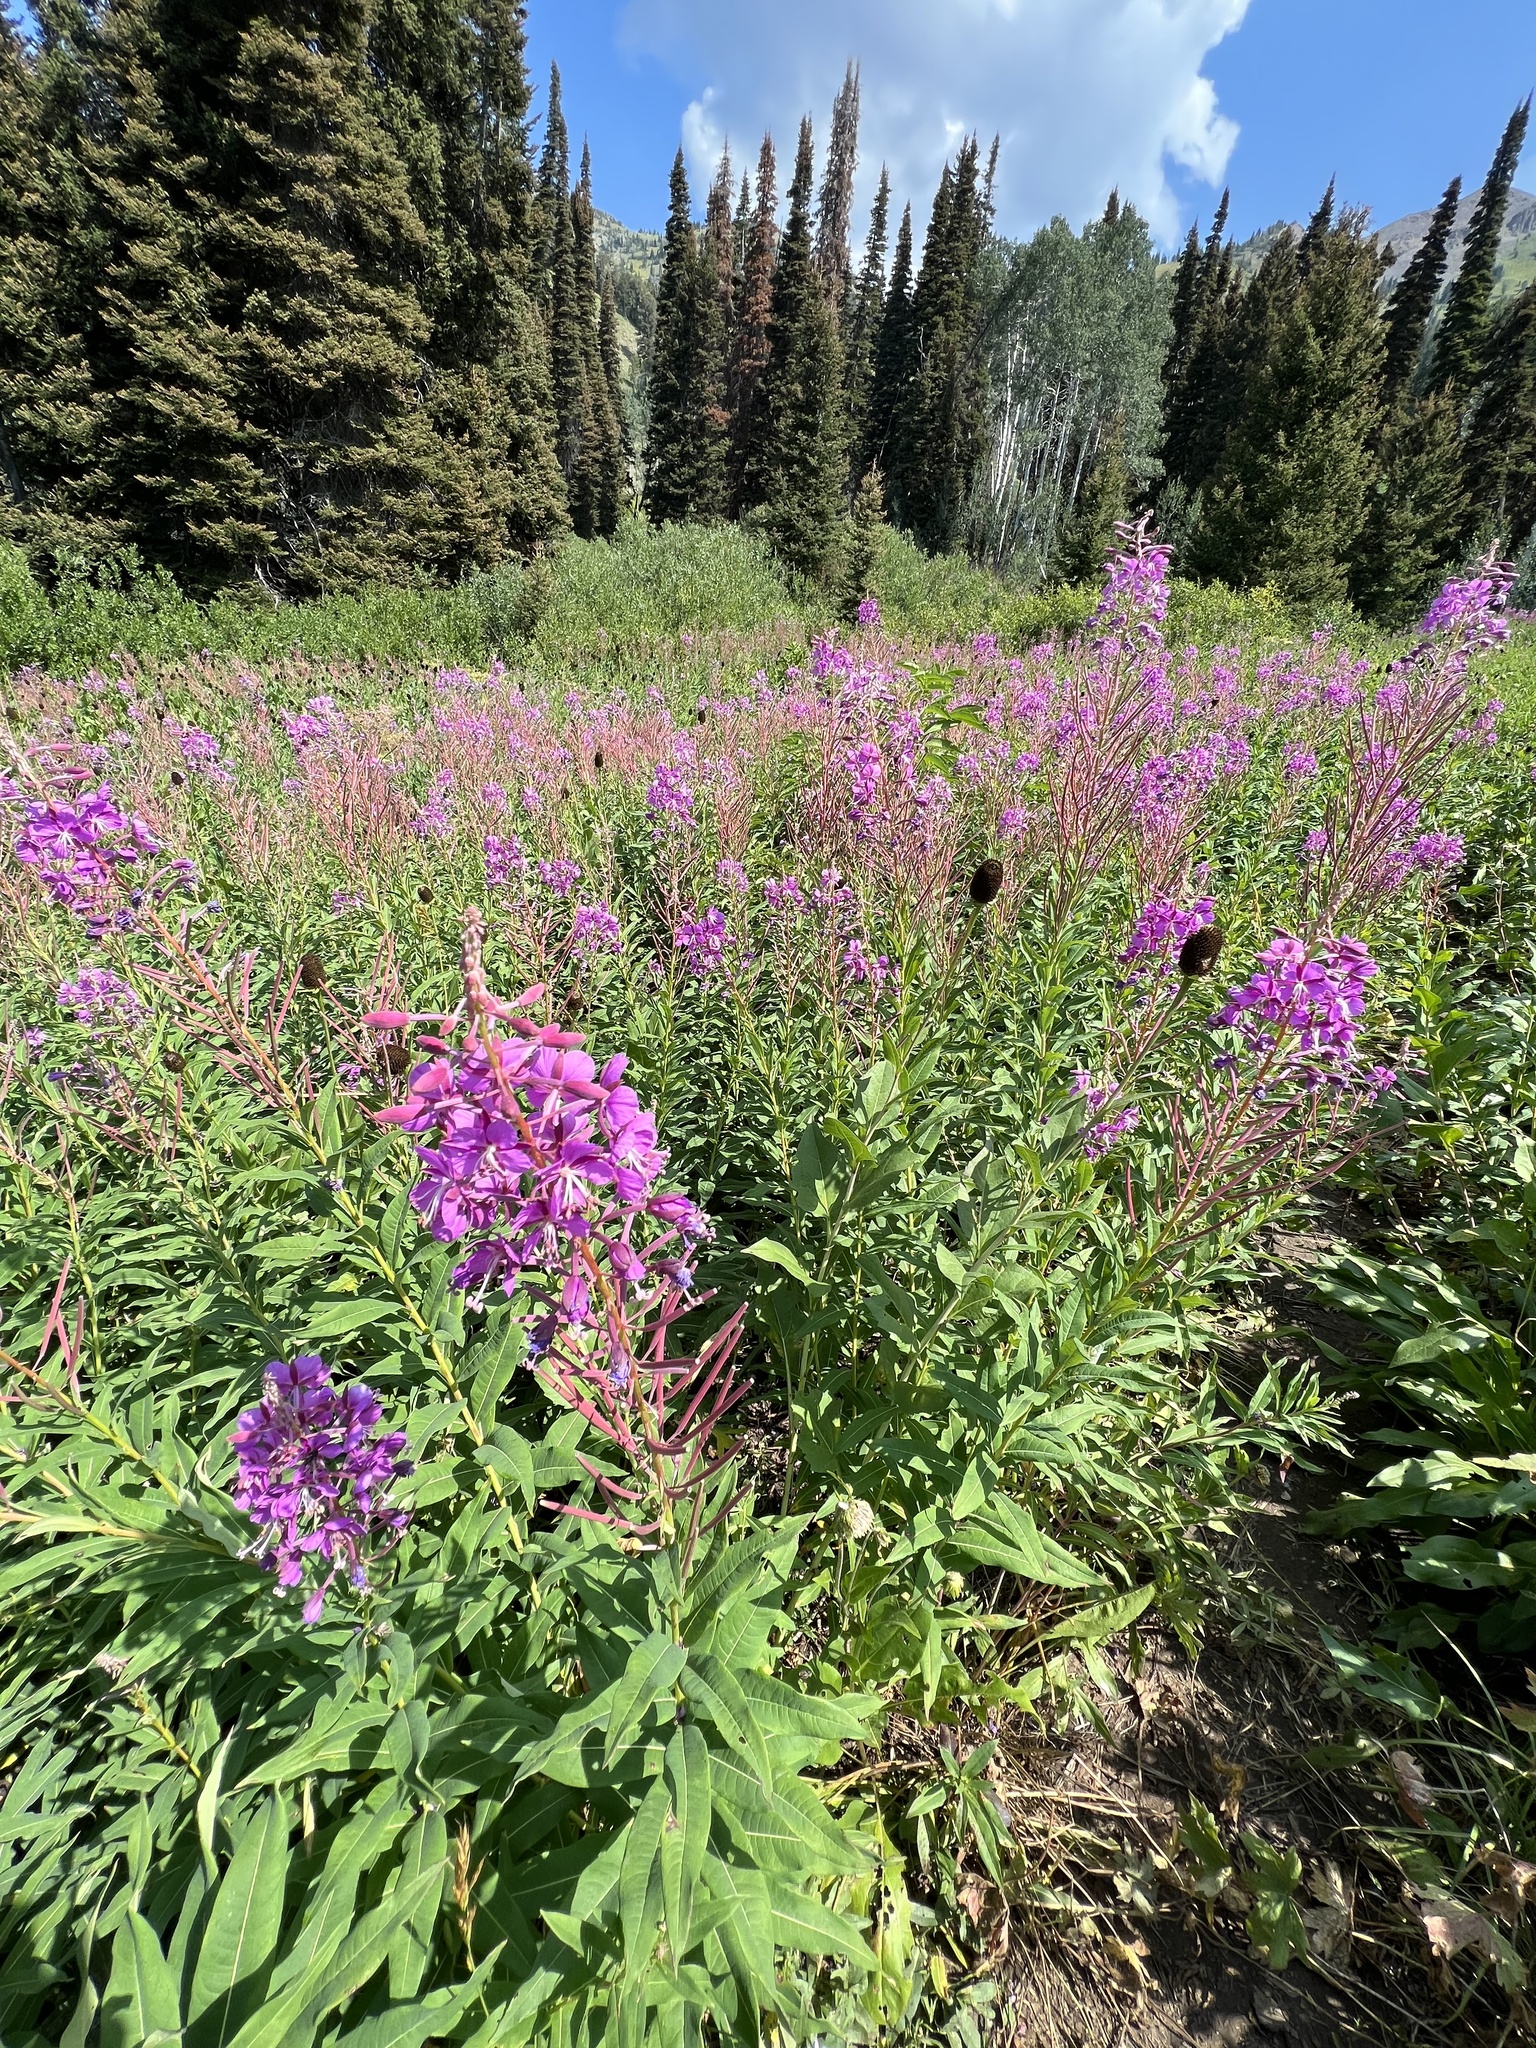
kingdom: Plantae
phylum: Tracheophyta
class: Magnoliopsida
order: Myrtales
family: Onagraceae
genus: Chamaenerion
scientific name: Chamaenerion angustifolium
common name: Fireweed
